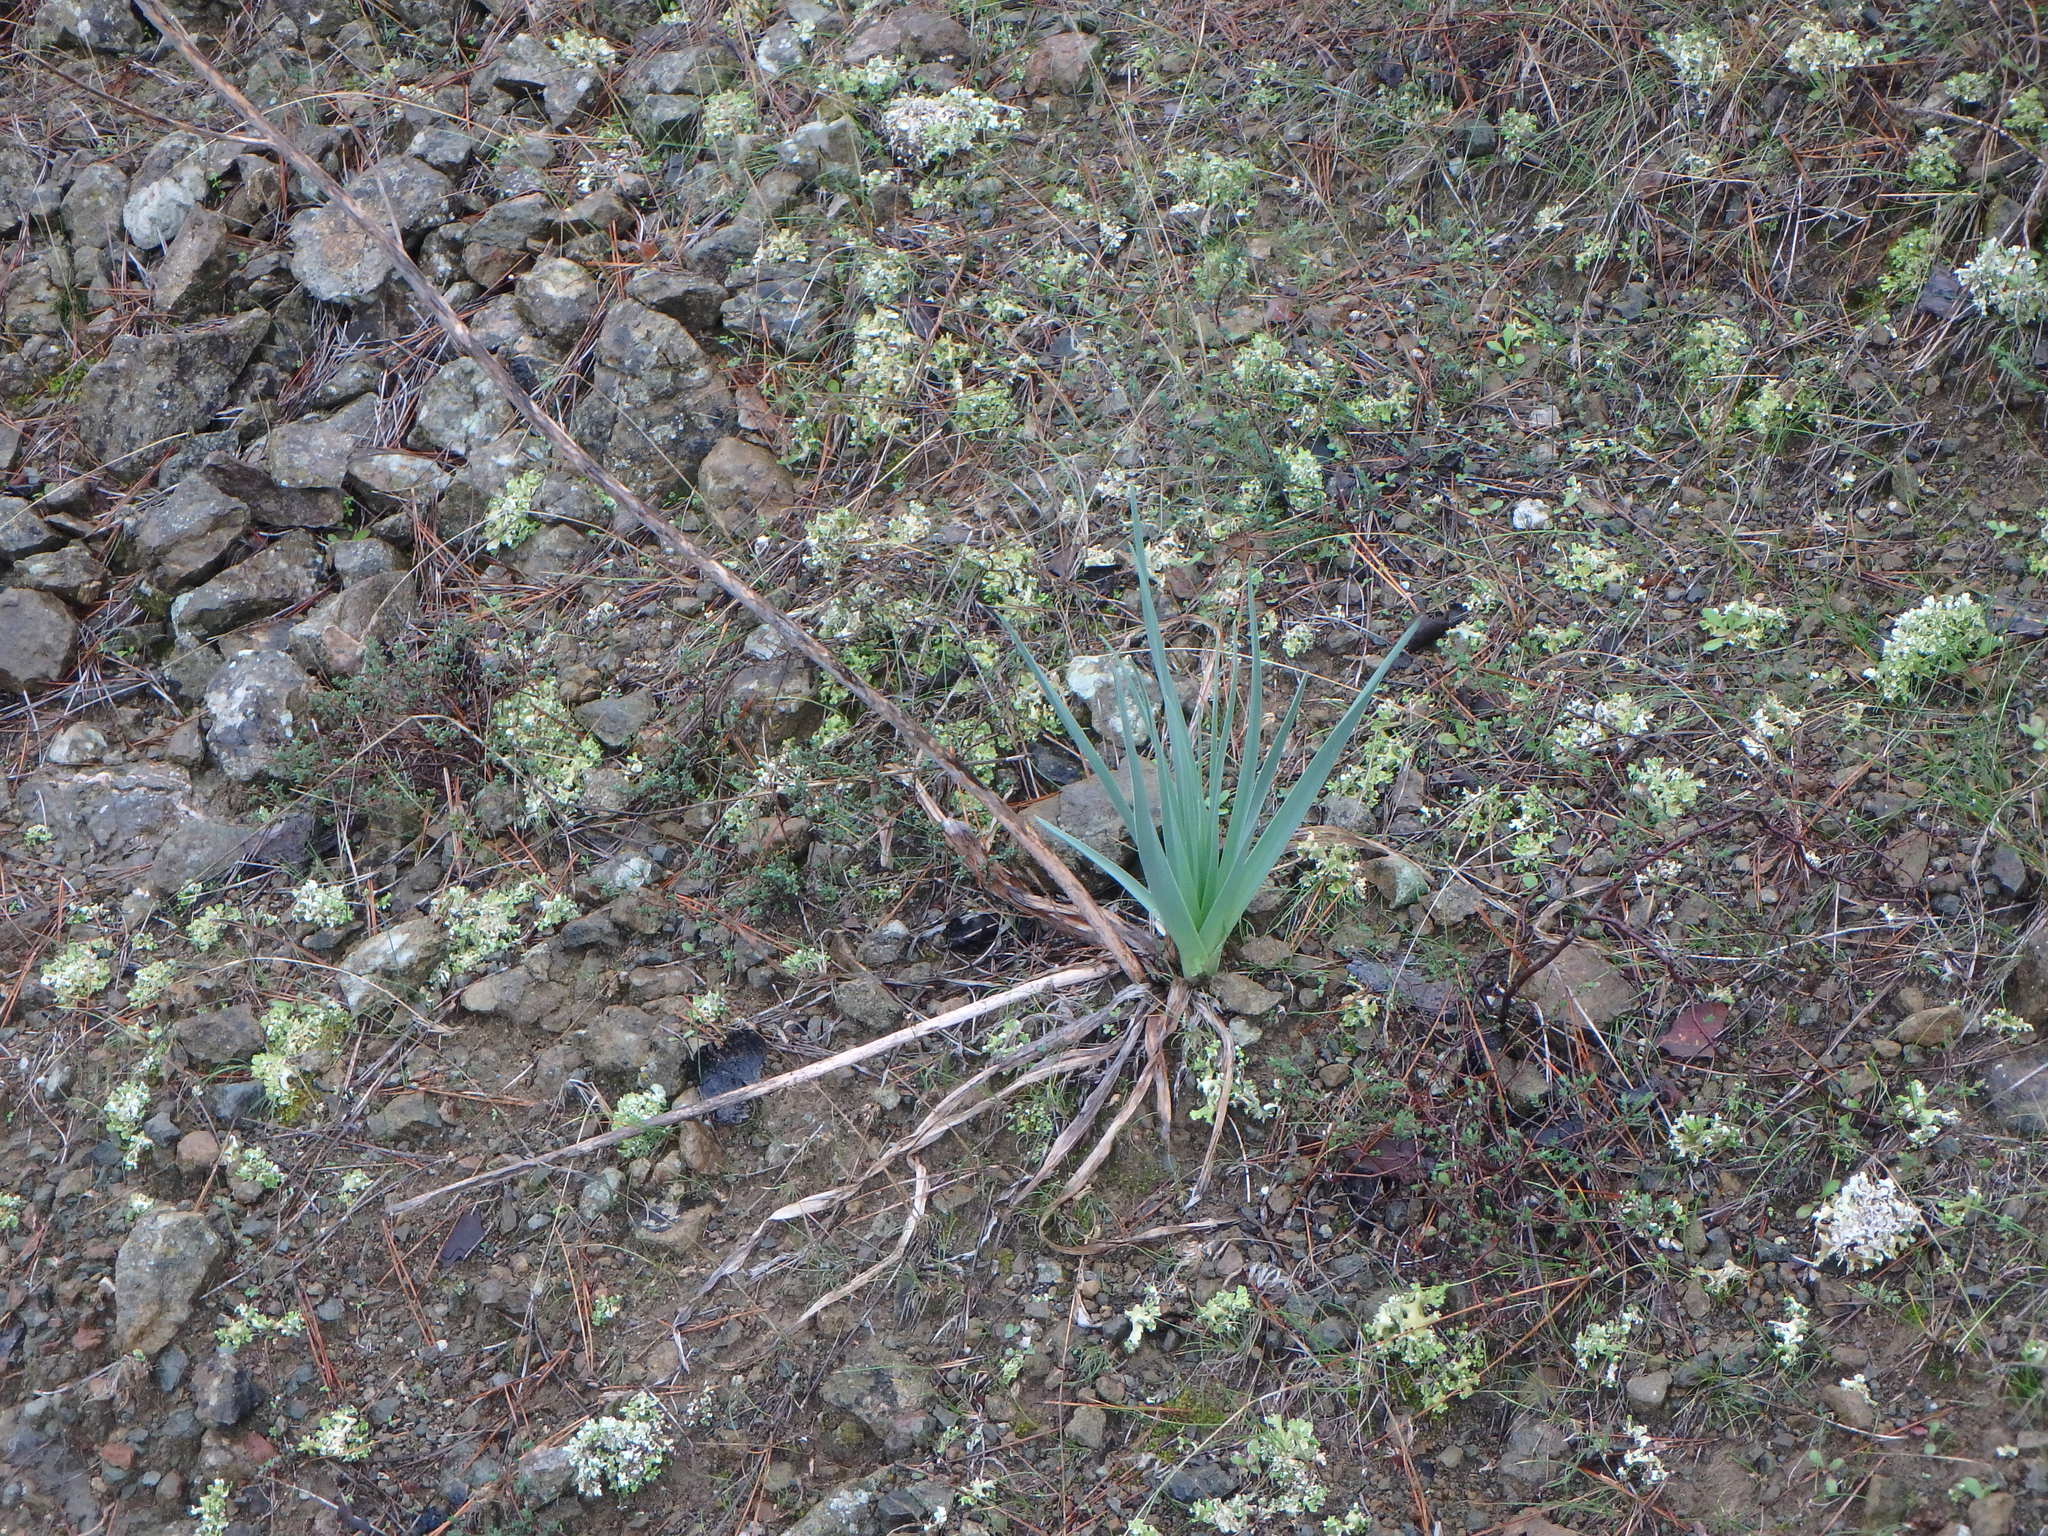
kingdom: Plantae
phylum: Tracheophyta
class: Liliopsida
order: Asparagales
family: Asphodelaceae
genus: Asphodelus
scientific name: Asphodelus ramosus
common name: Silverrod
